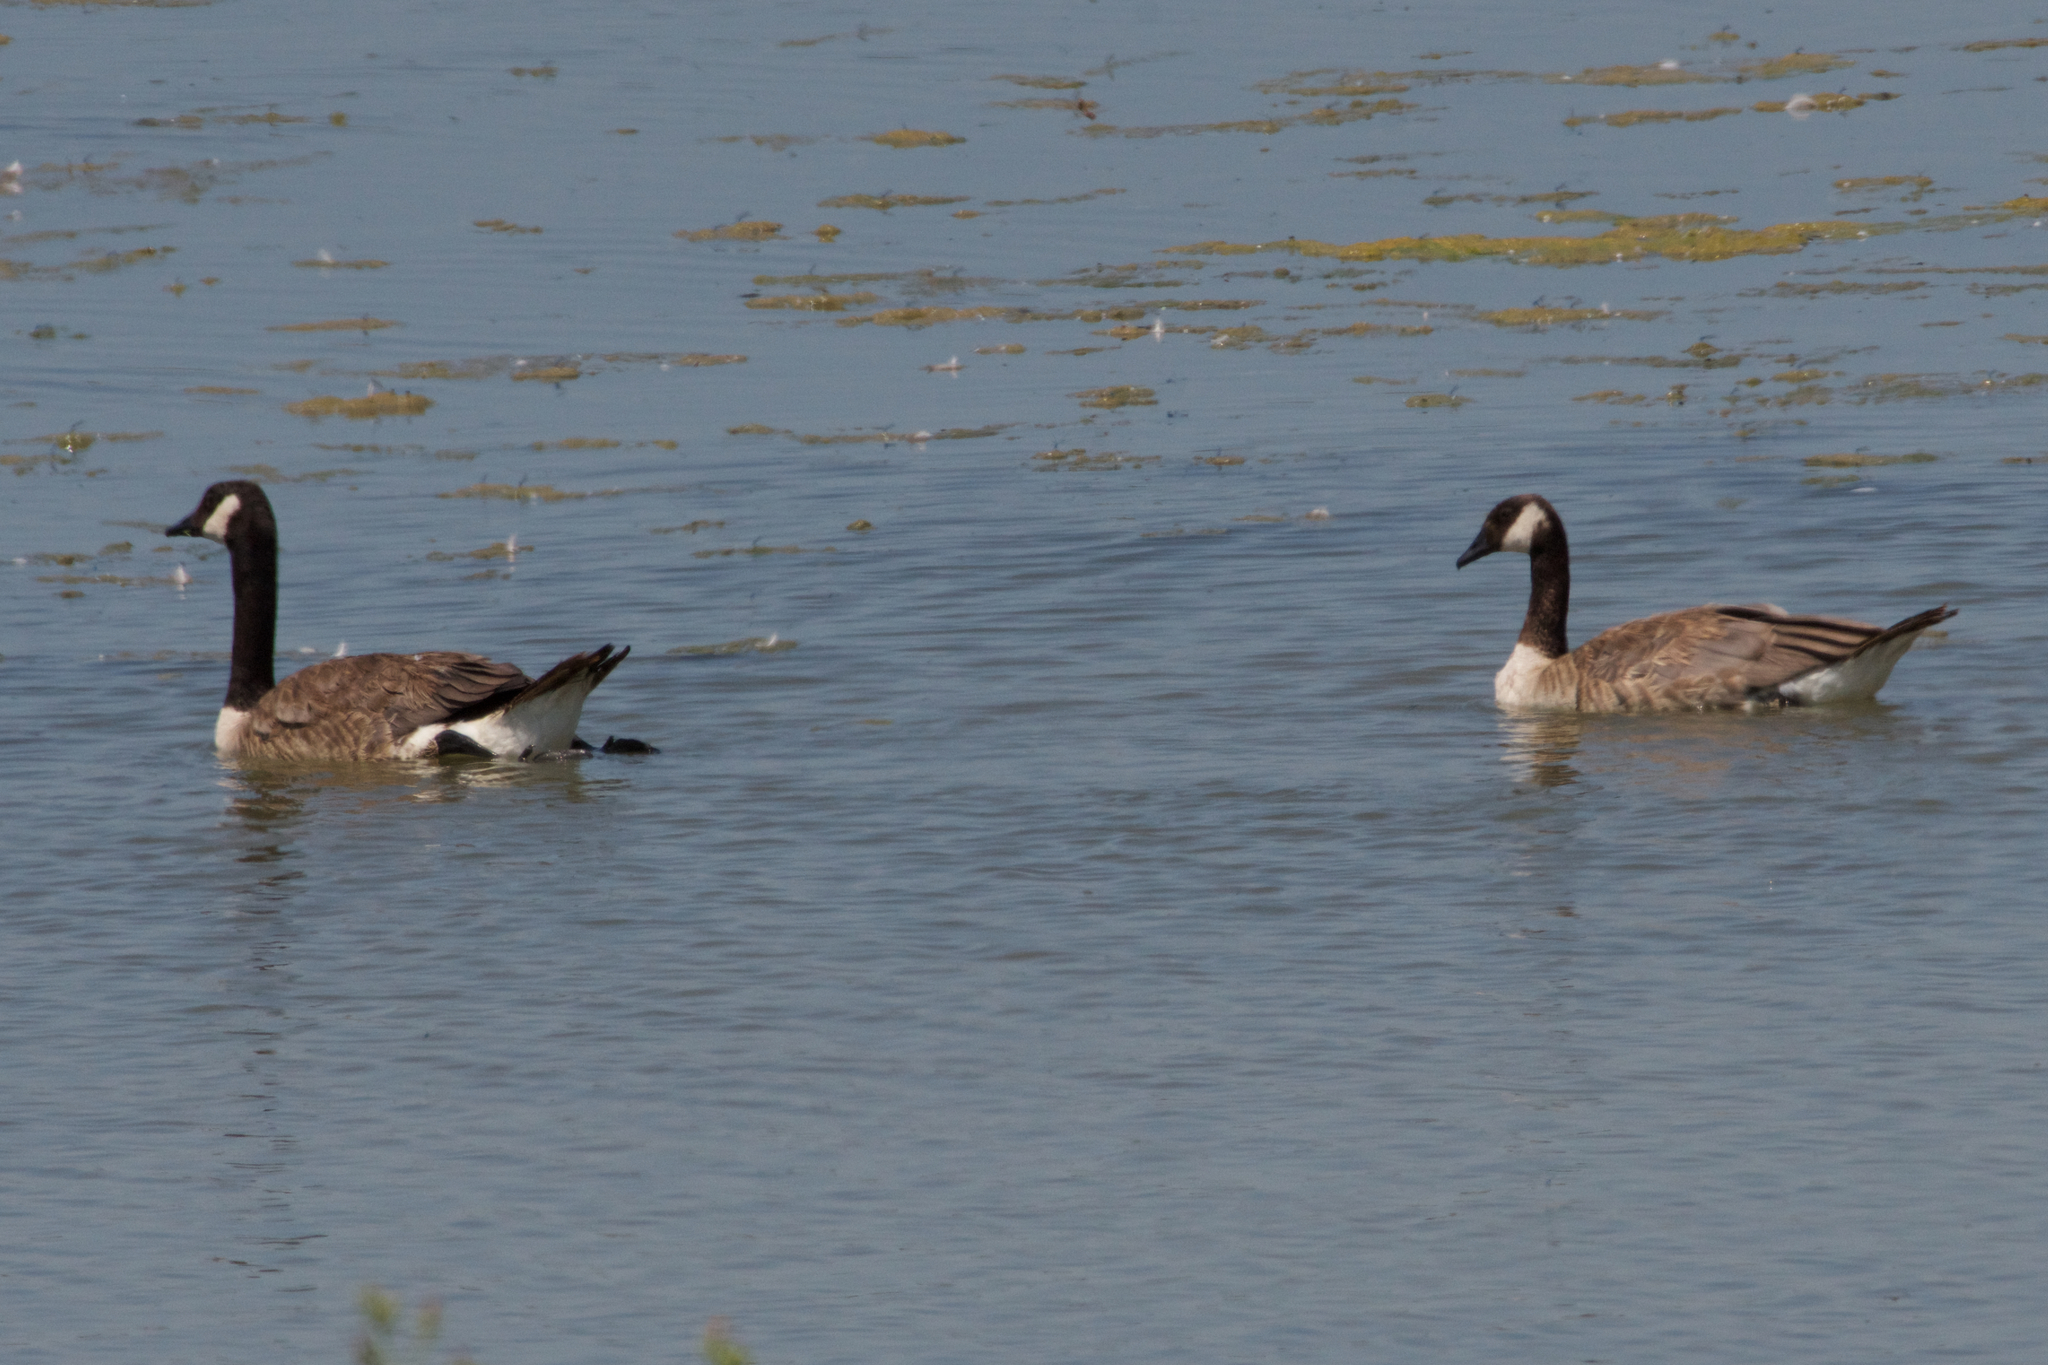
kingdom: Animalia
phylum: Chordata
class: Aves
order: Anseriformes
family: Anatidae
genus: Branta
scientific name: Branta canadensis
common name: Canada goose
